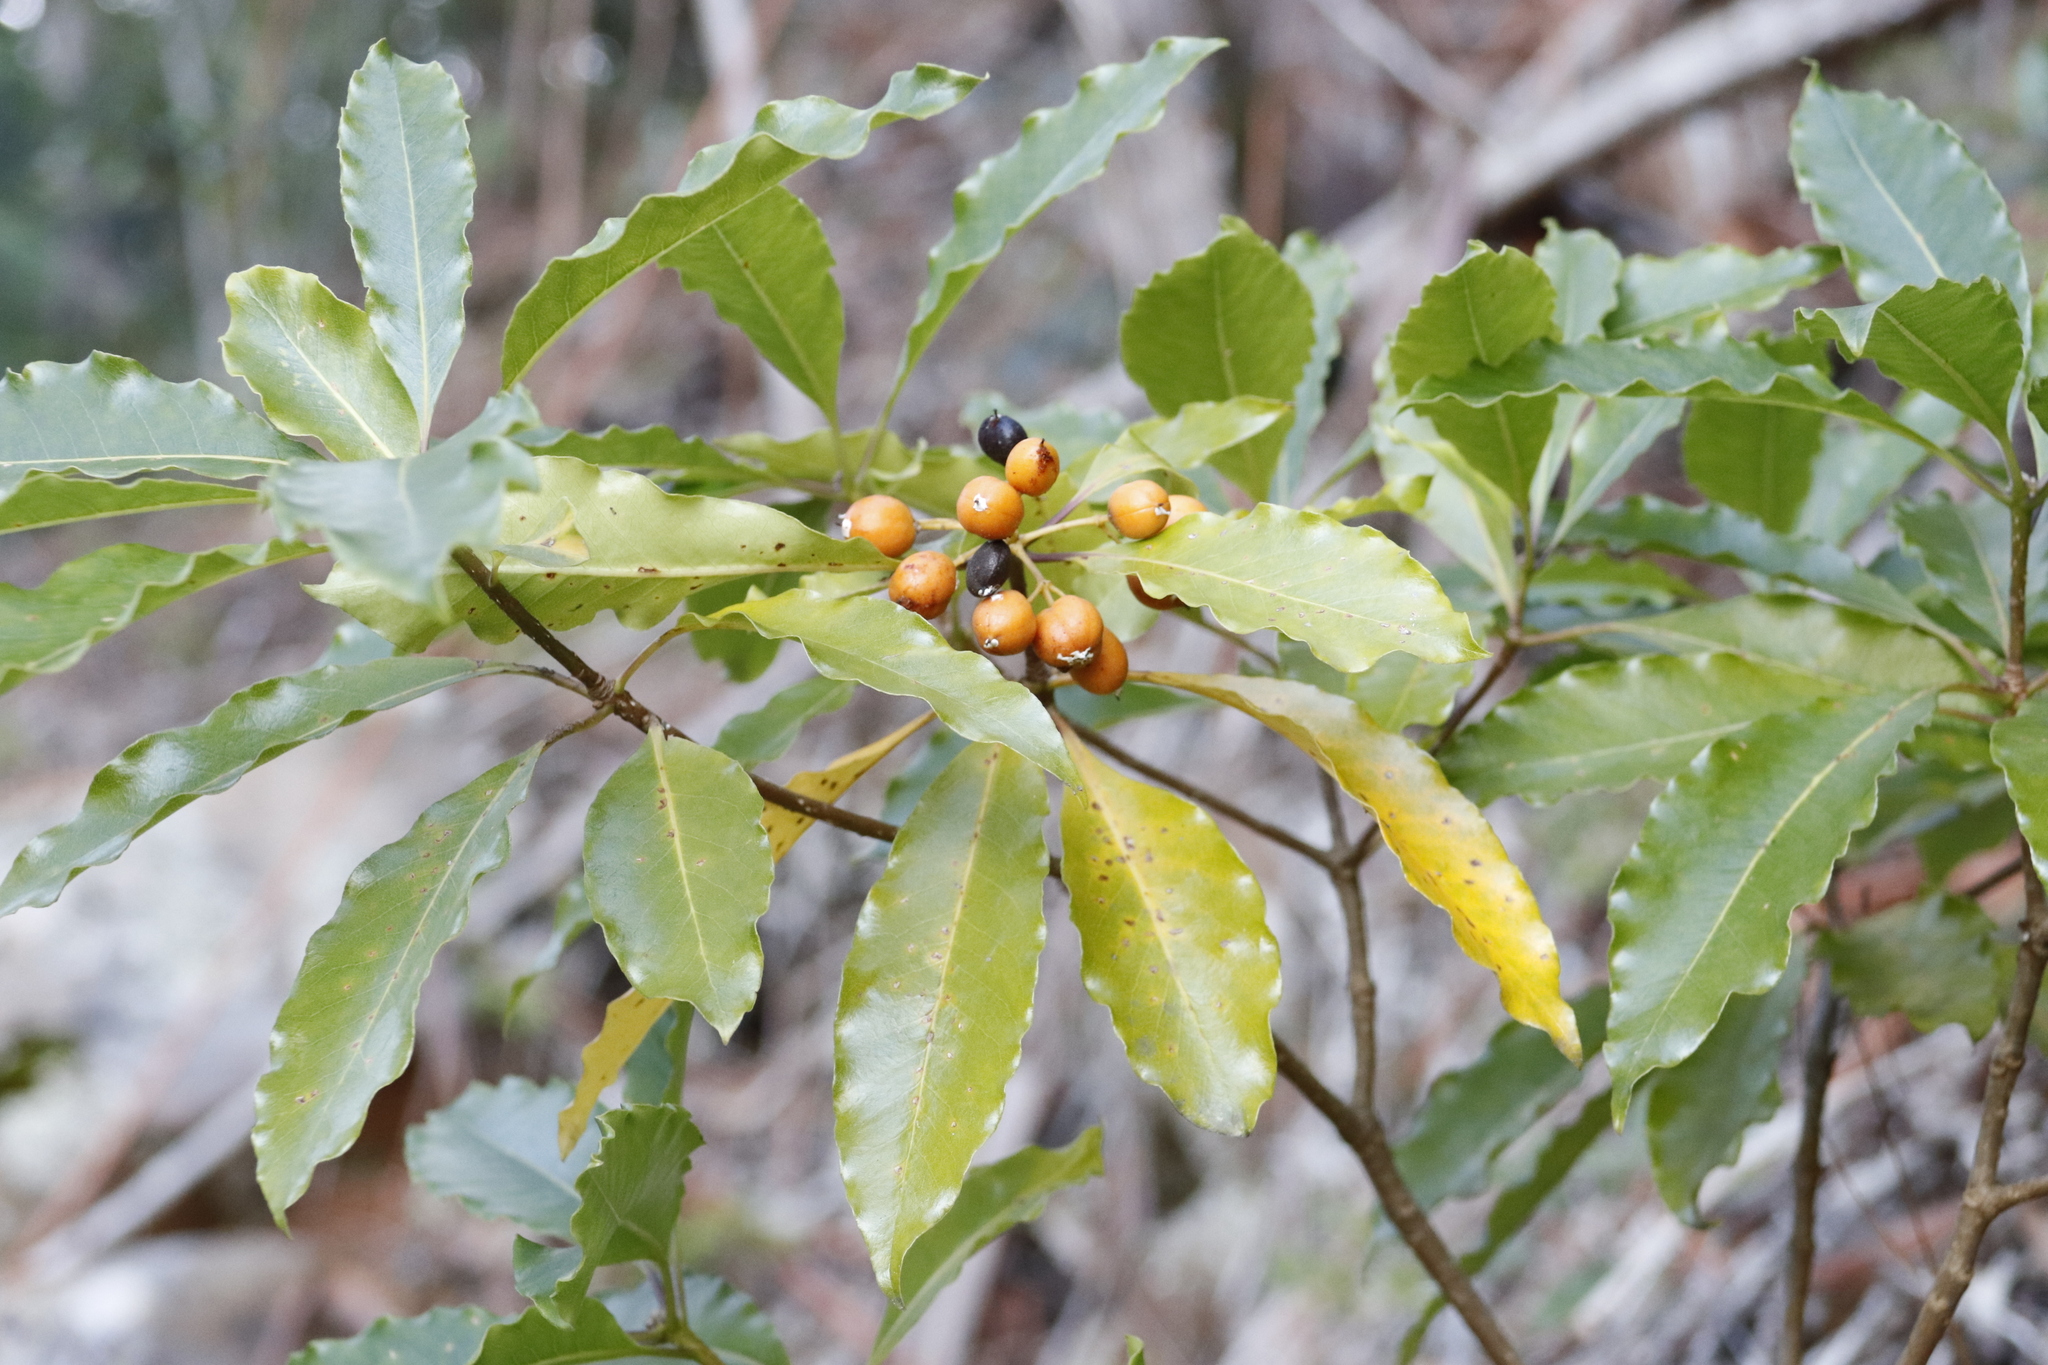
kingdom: Plantae
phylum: Tracheophyta
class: Magnoliopsida
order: Apiales
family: Pittosporaceae
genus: Pittosporum
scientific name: Pittosporum undulatum
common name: Australian cheesewood
